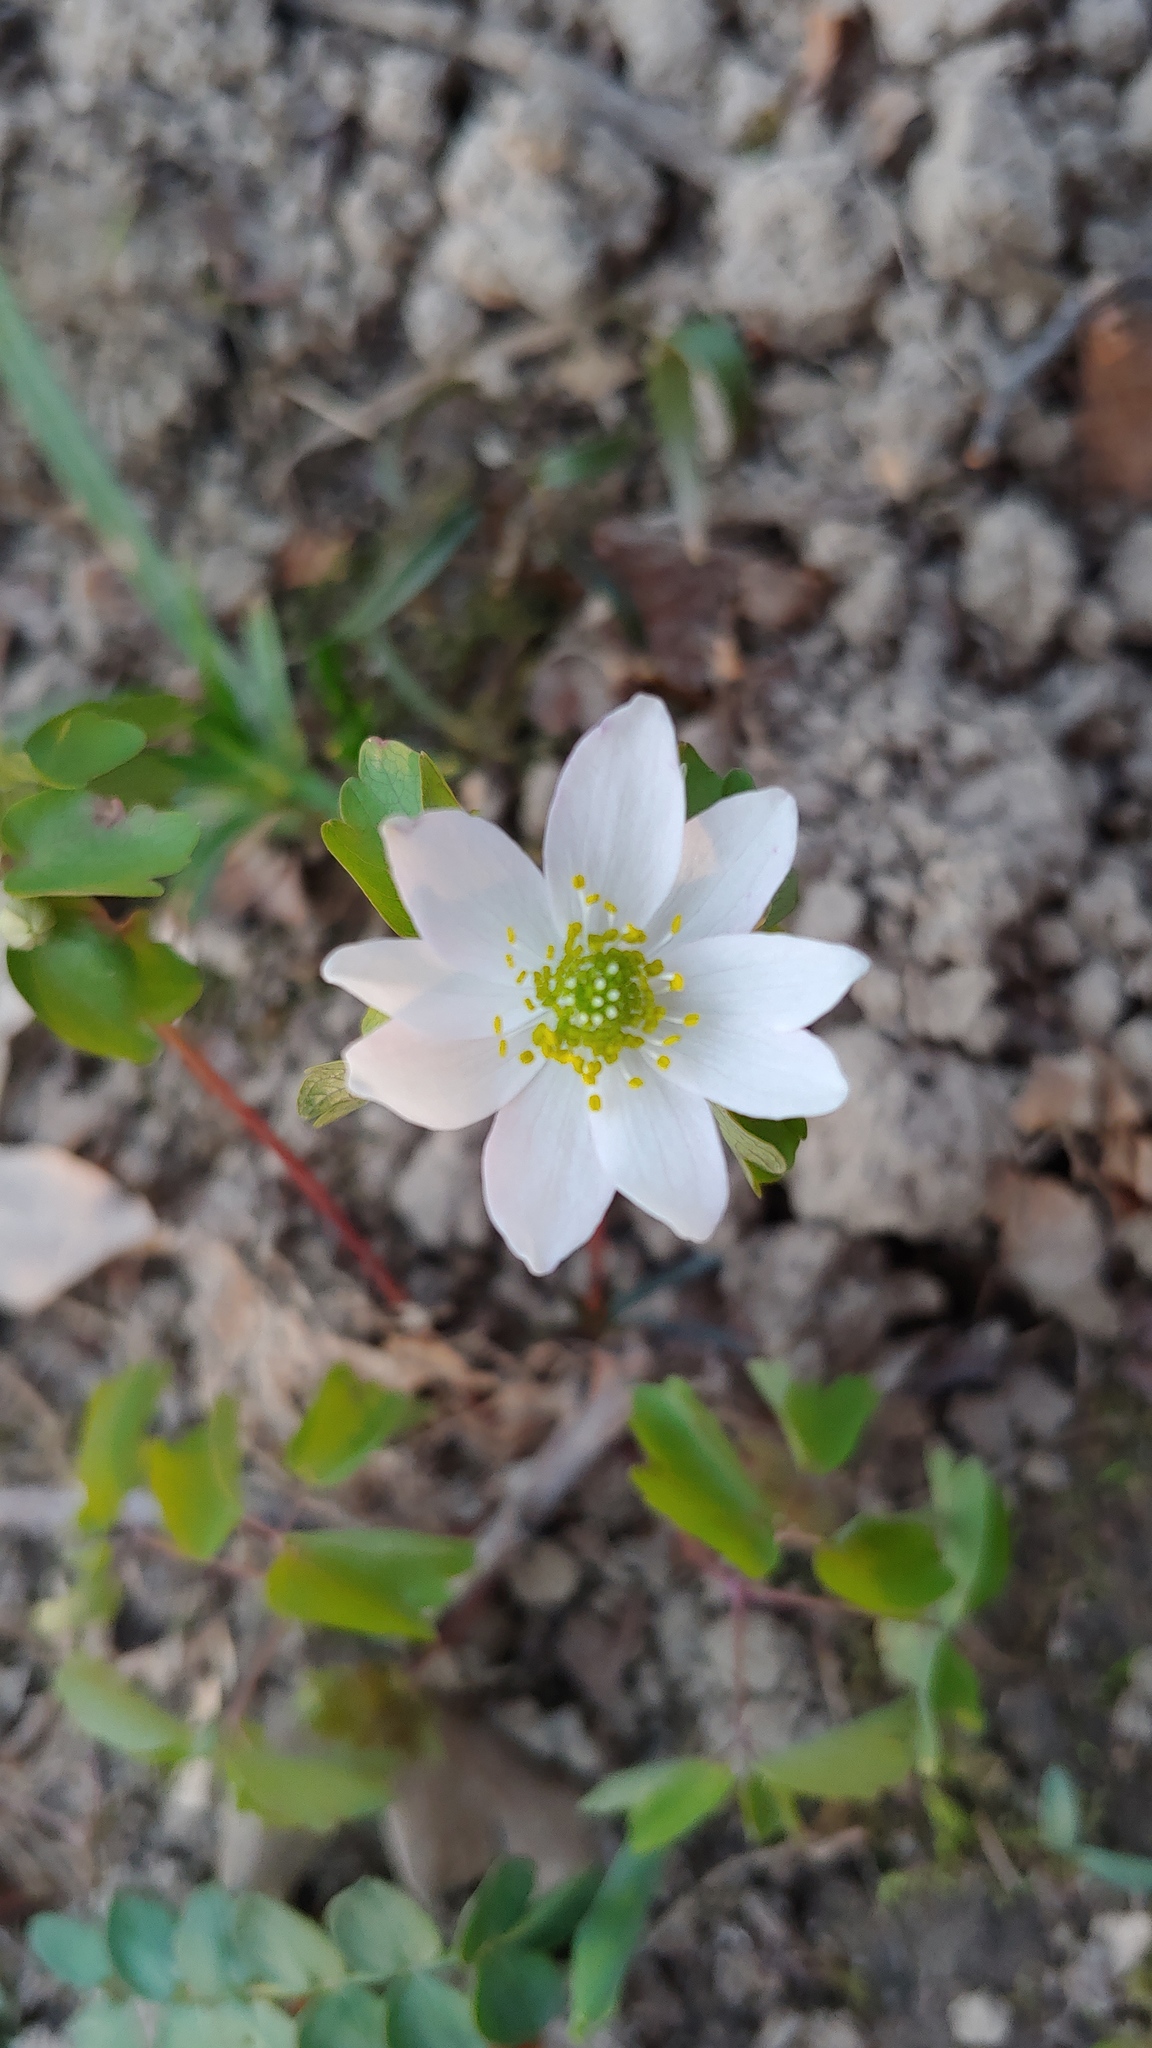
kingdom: Plantae
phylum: Tracheophyta
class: Magnoliopsida
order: Ranunculales
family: Ranunculaceae
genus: Thalictrum
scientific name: Thalictrum thalictroides
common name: Rue-anemone
